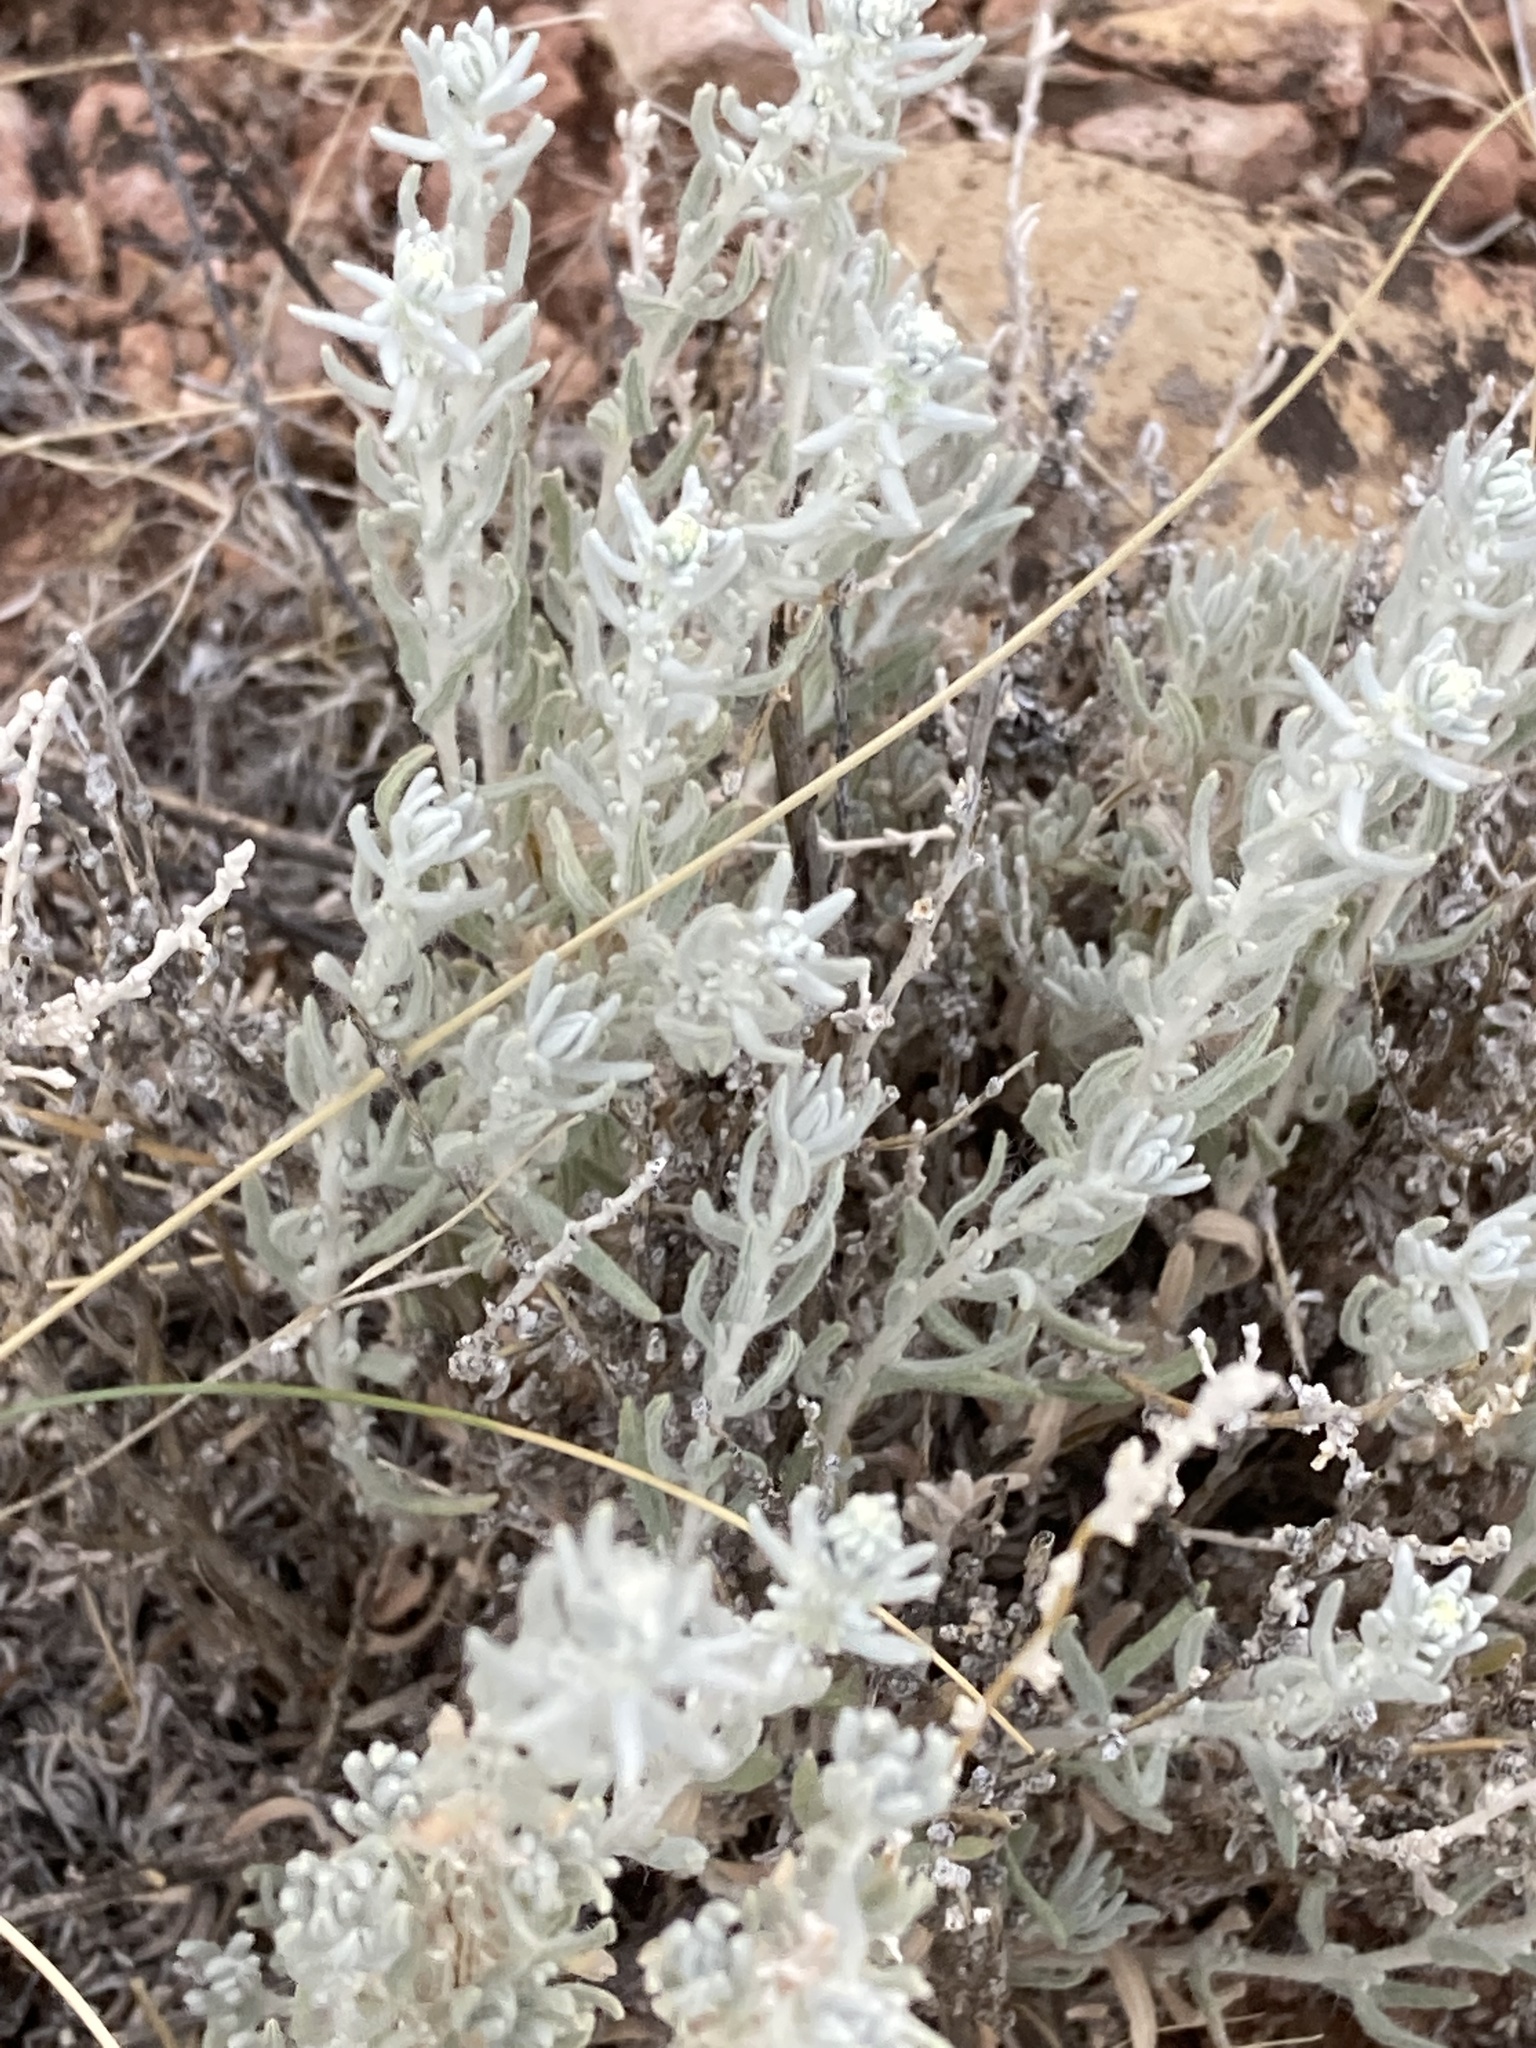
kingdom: Plantae
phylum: Tracheophyta
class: Magnoliopsida
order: Caryophyllales
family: Amaranthaceae
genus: Krascheninnikovia
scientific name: Krascheninnikovia lanata
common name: Winterfat
